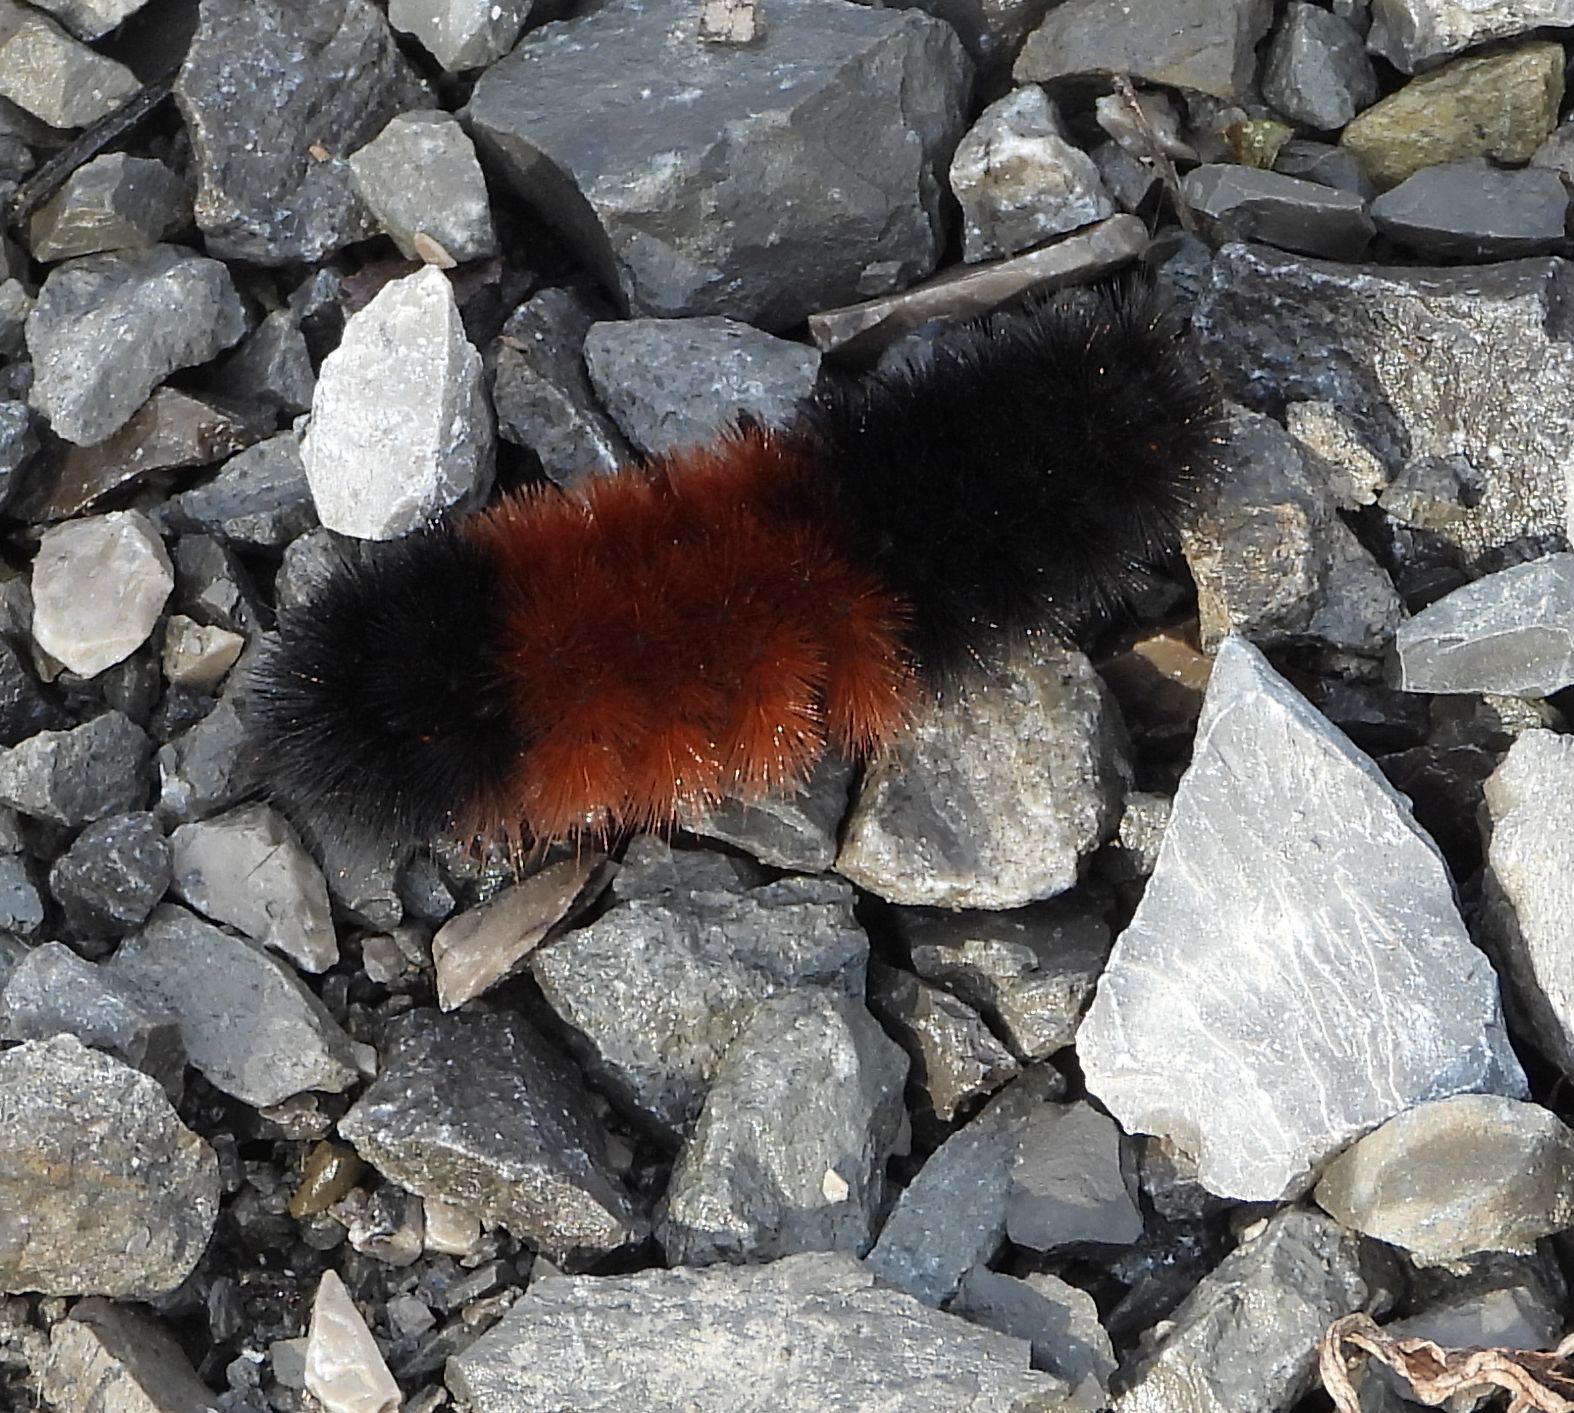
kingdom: Animalia
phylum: Arthropoda
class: Insecta
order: Lepidoptera
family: Erebidae
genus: Pyrrharctia
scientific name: Pyrrharctia isabella
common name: Isabella tiger moth
